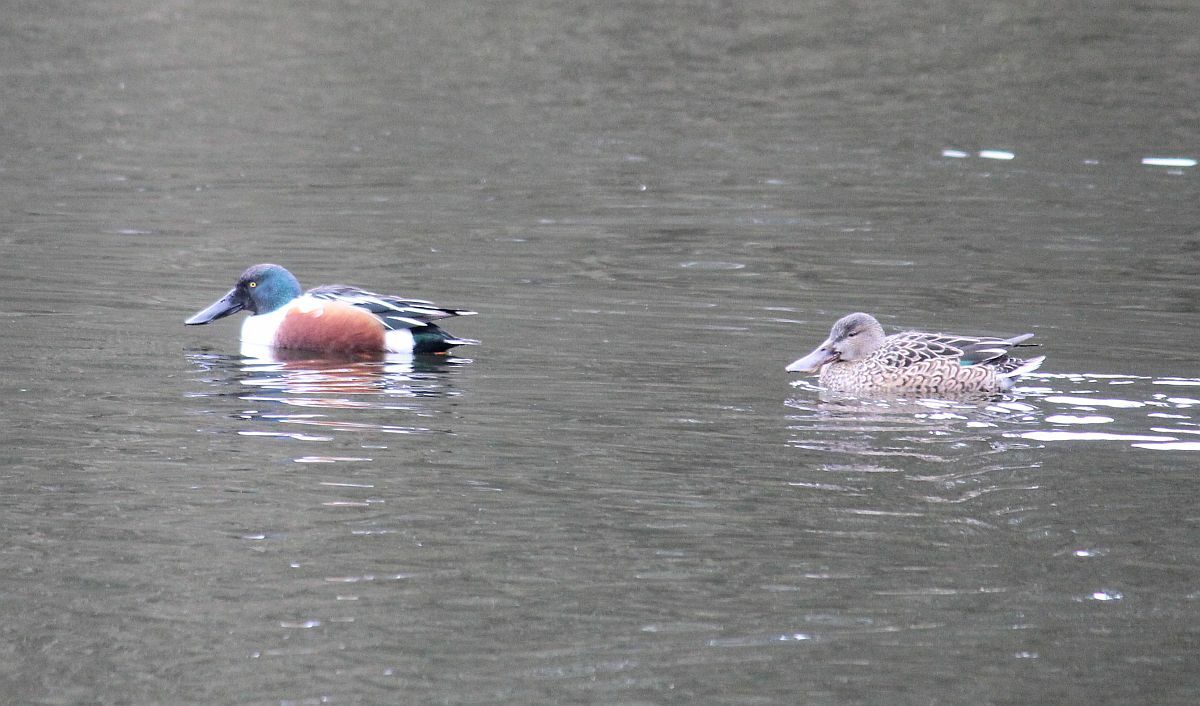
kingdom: Animalia
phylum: Chordata
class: Aves
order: Anseriformes
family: Anatidae
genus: Spatula
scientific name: Spatula clypeata
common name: Northern shoveler
